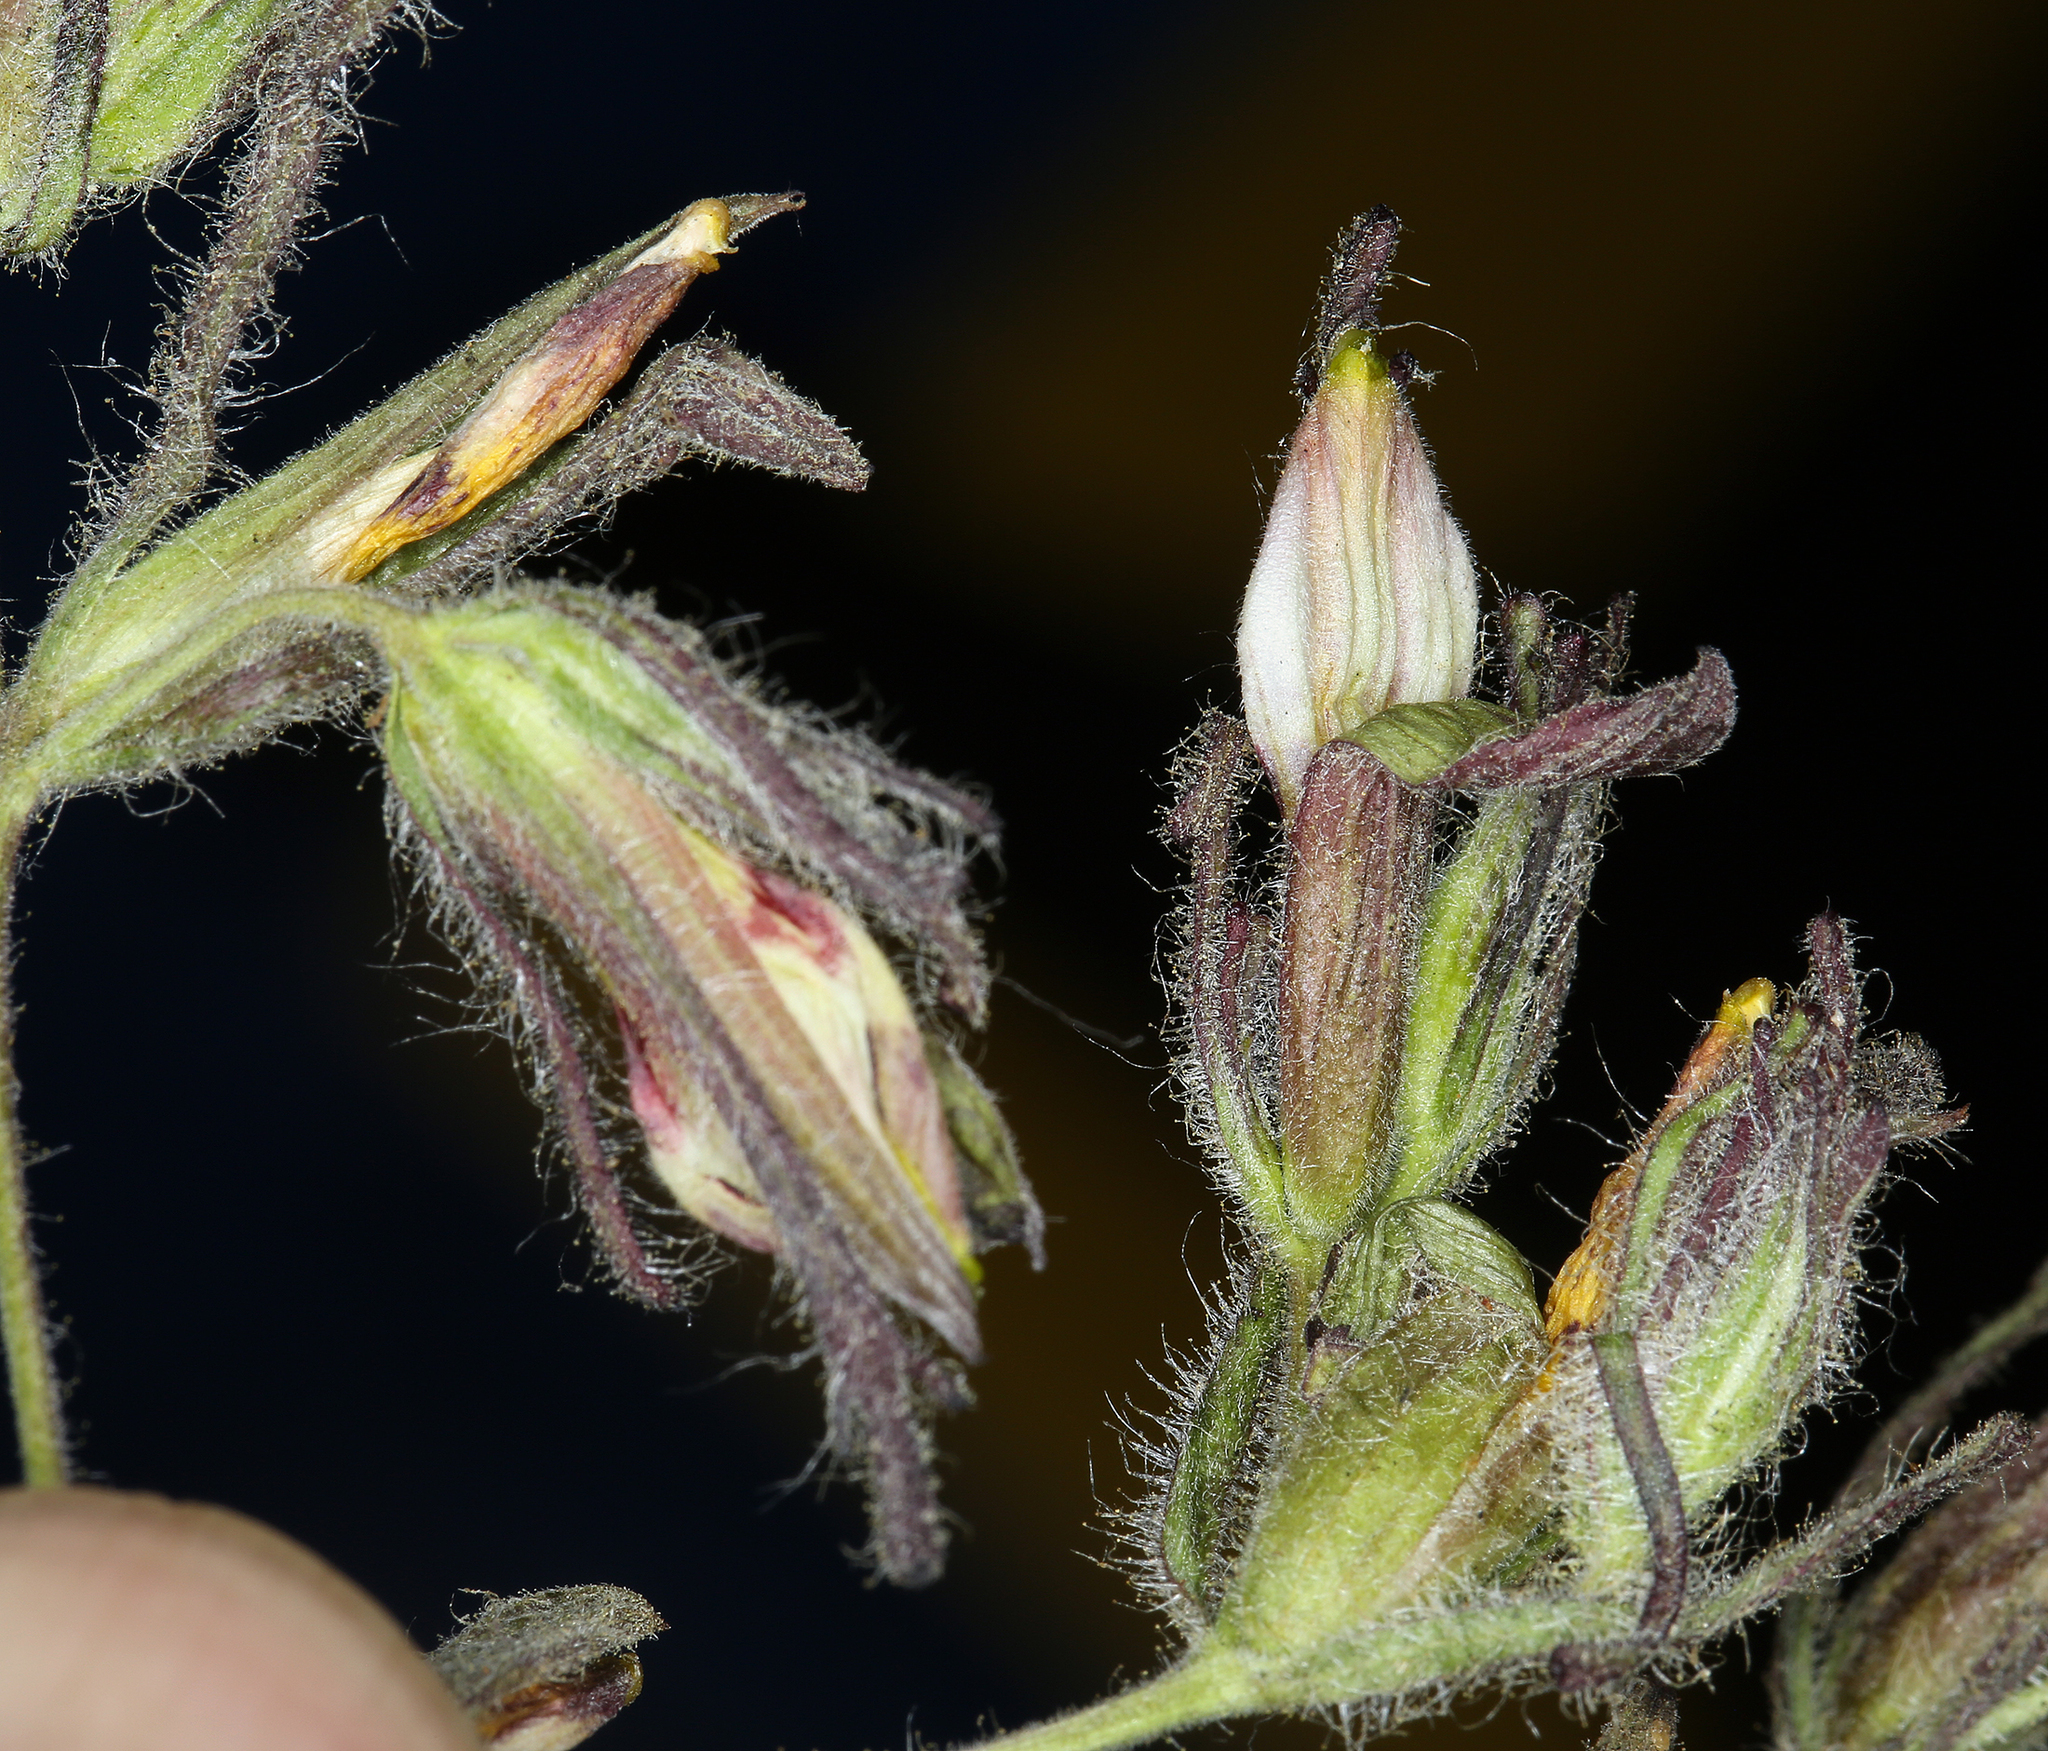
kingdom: Plantae
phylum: Tracheophyta
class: Magnoliopsida
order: Lamiales
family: Orobanchaceae
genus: Cordylanthus
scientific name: Cordylanthus tenuis
